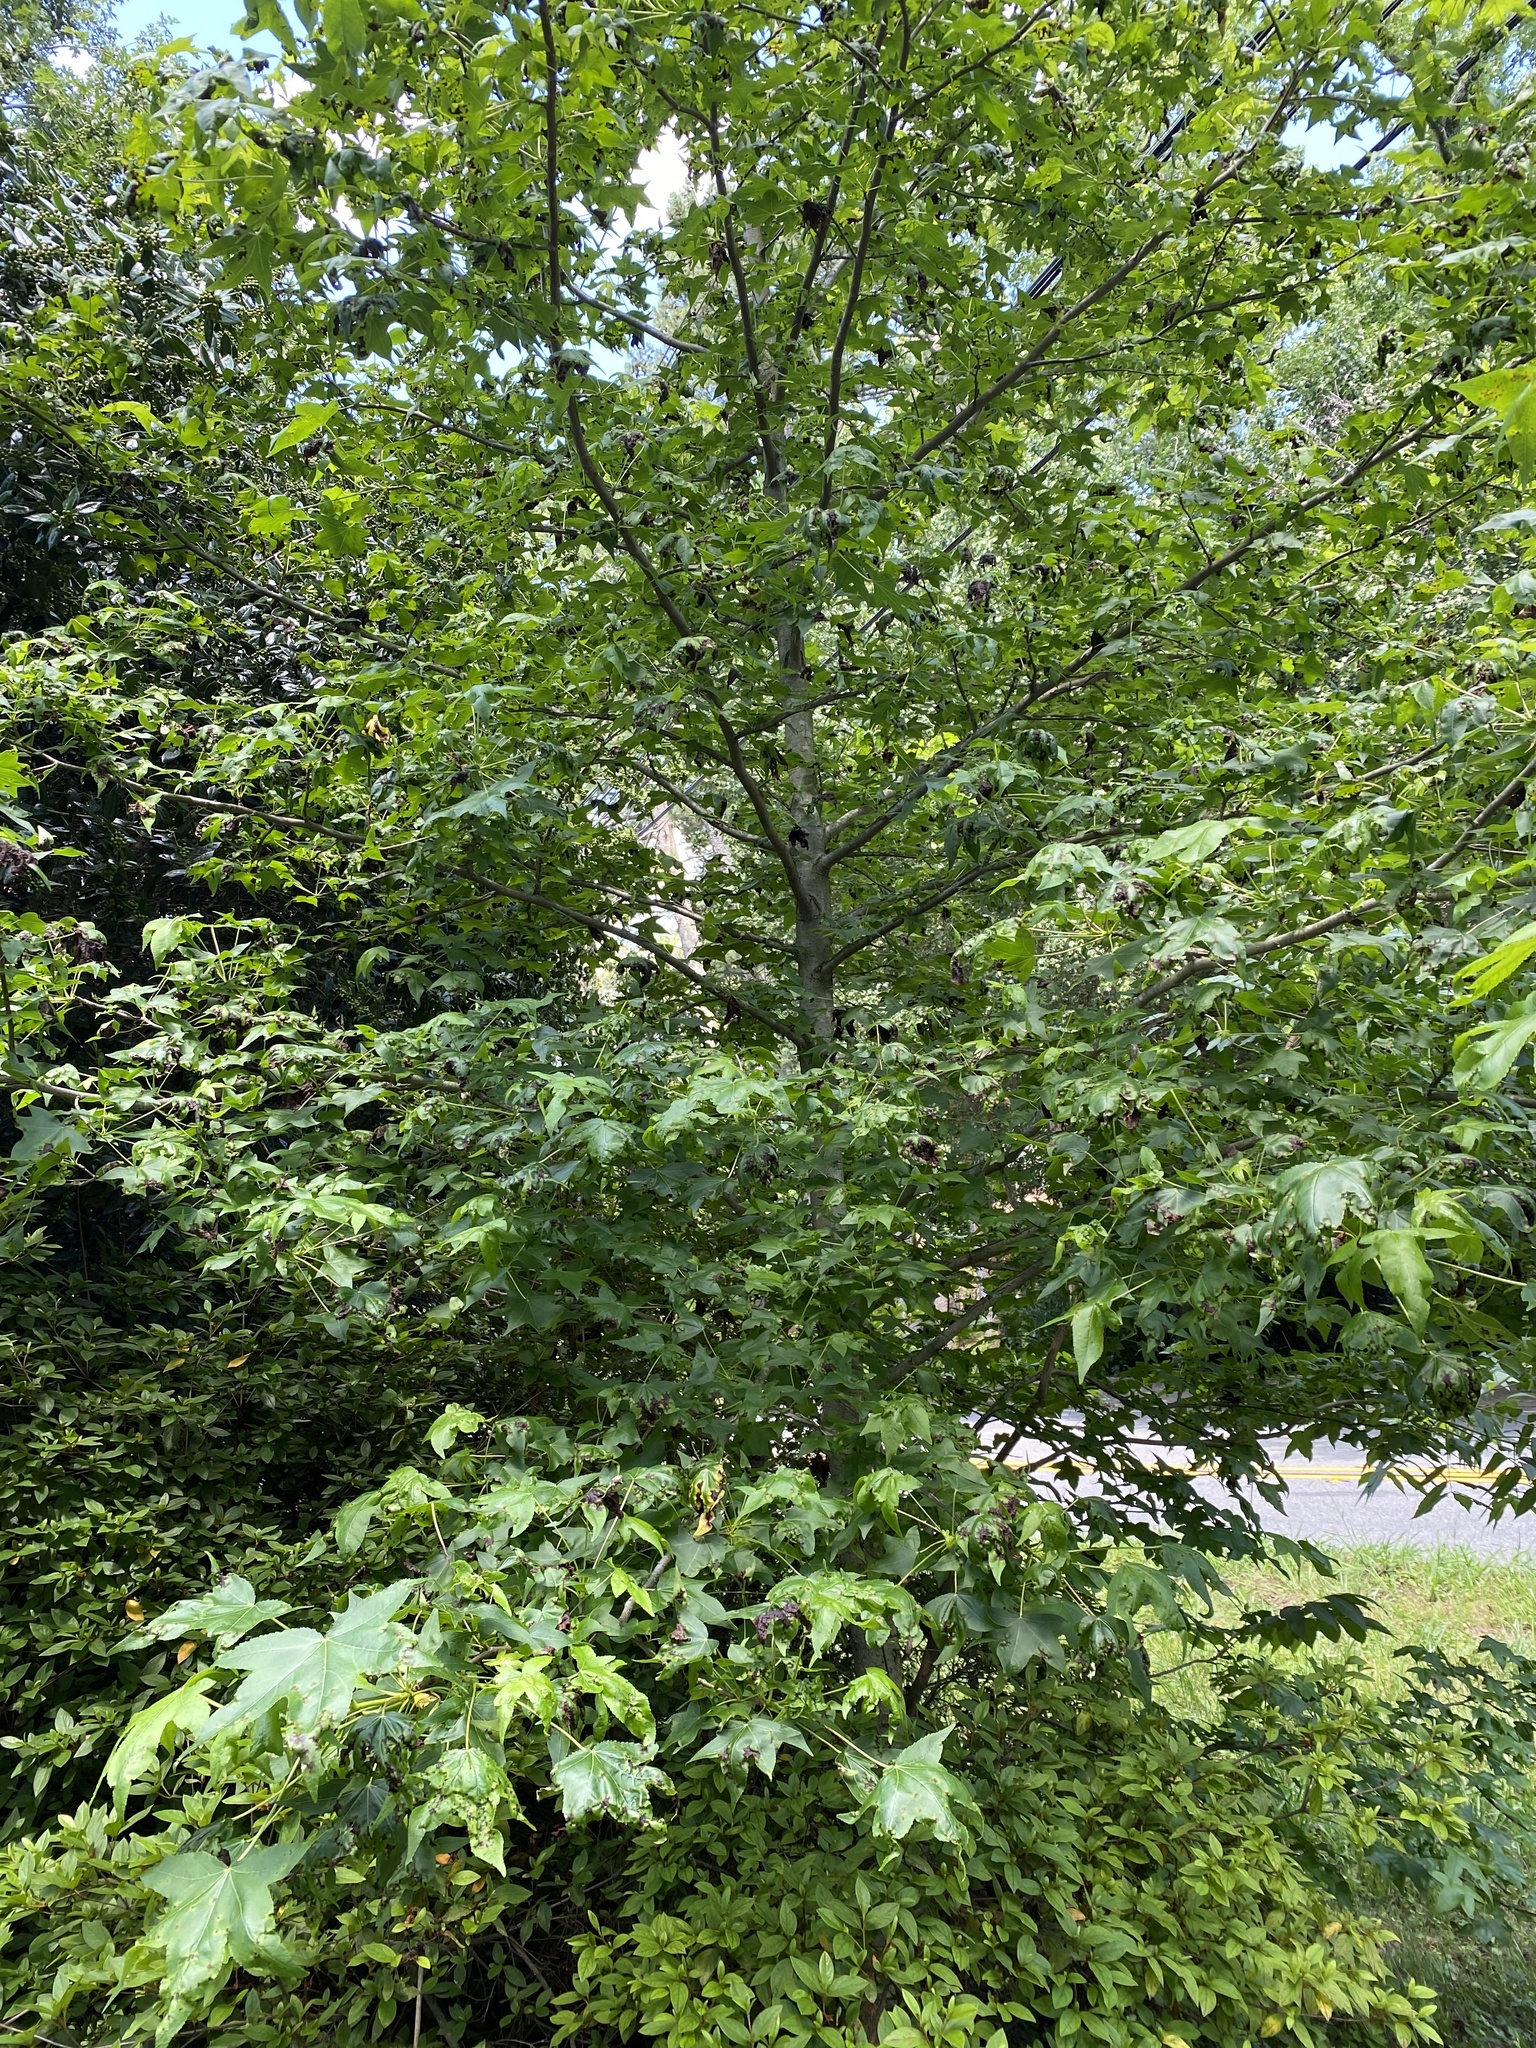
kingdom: Plantae
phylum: Tracheophyta
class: Magnoliopsida
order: Saxifragales
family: Altingiaceae
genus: Liquidambar
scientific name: Liquidambar styraciflua
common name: Sweet gum
